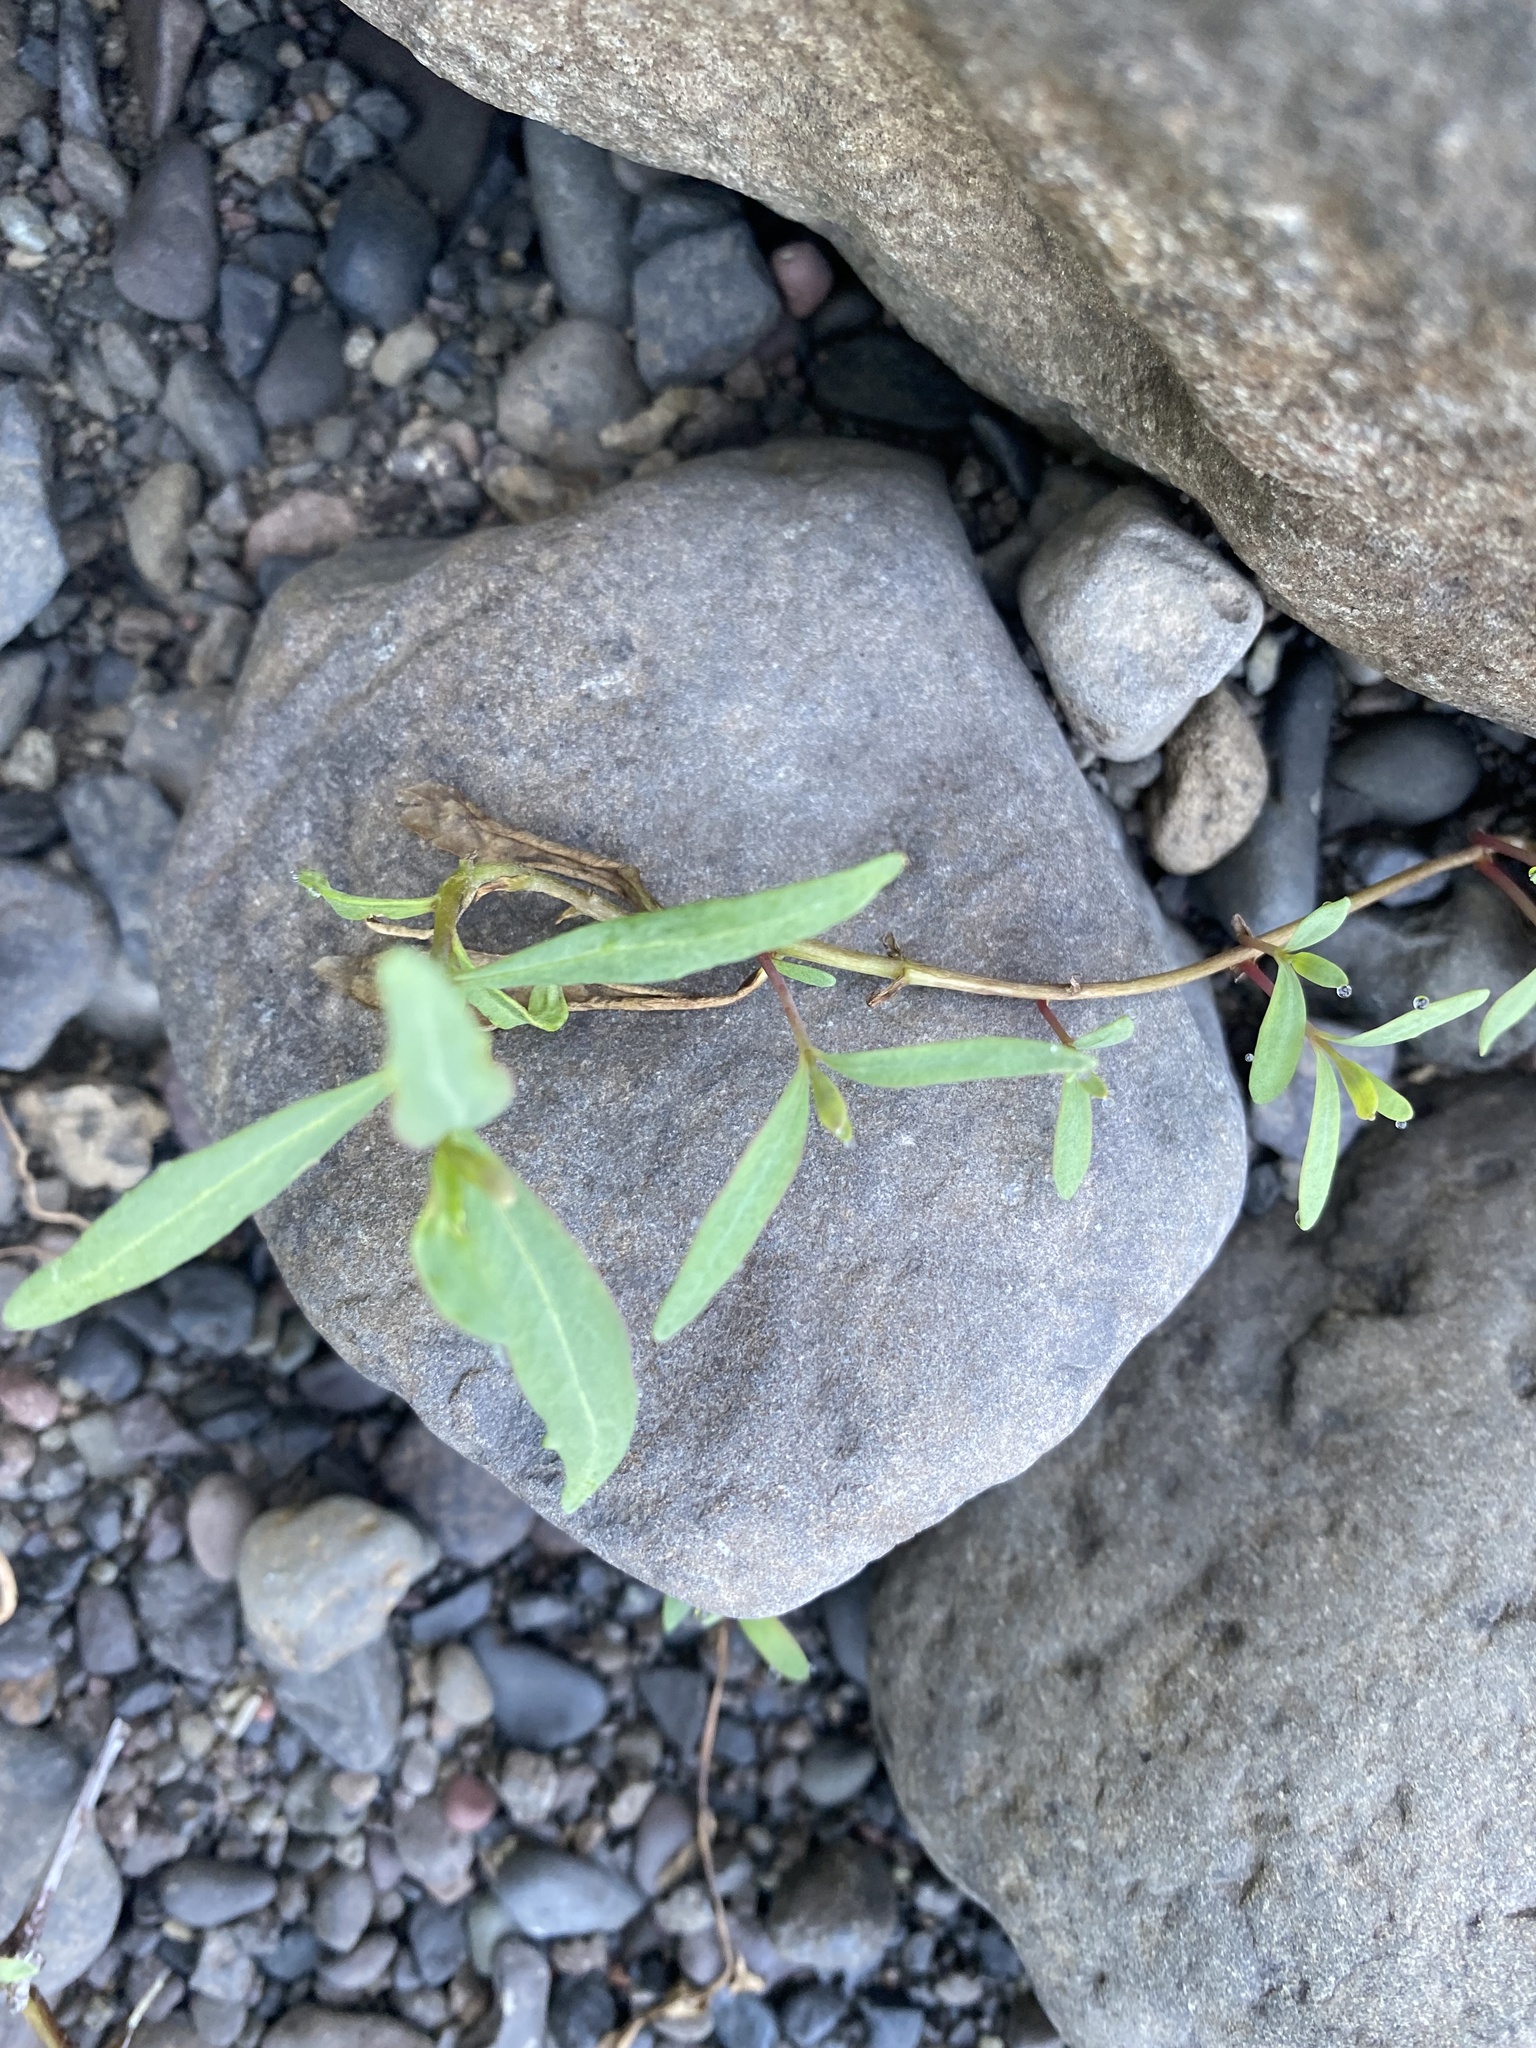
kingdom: Plantae
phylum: Tracheophyta
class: Magnoliopsida
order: Myrtales
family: Onagraceae
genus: Chamaenerion
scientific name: Chamaenerion latifolium
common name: Dwarf fireweed
